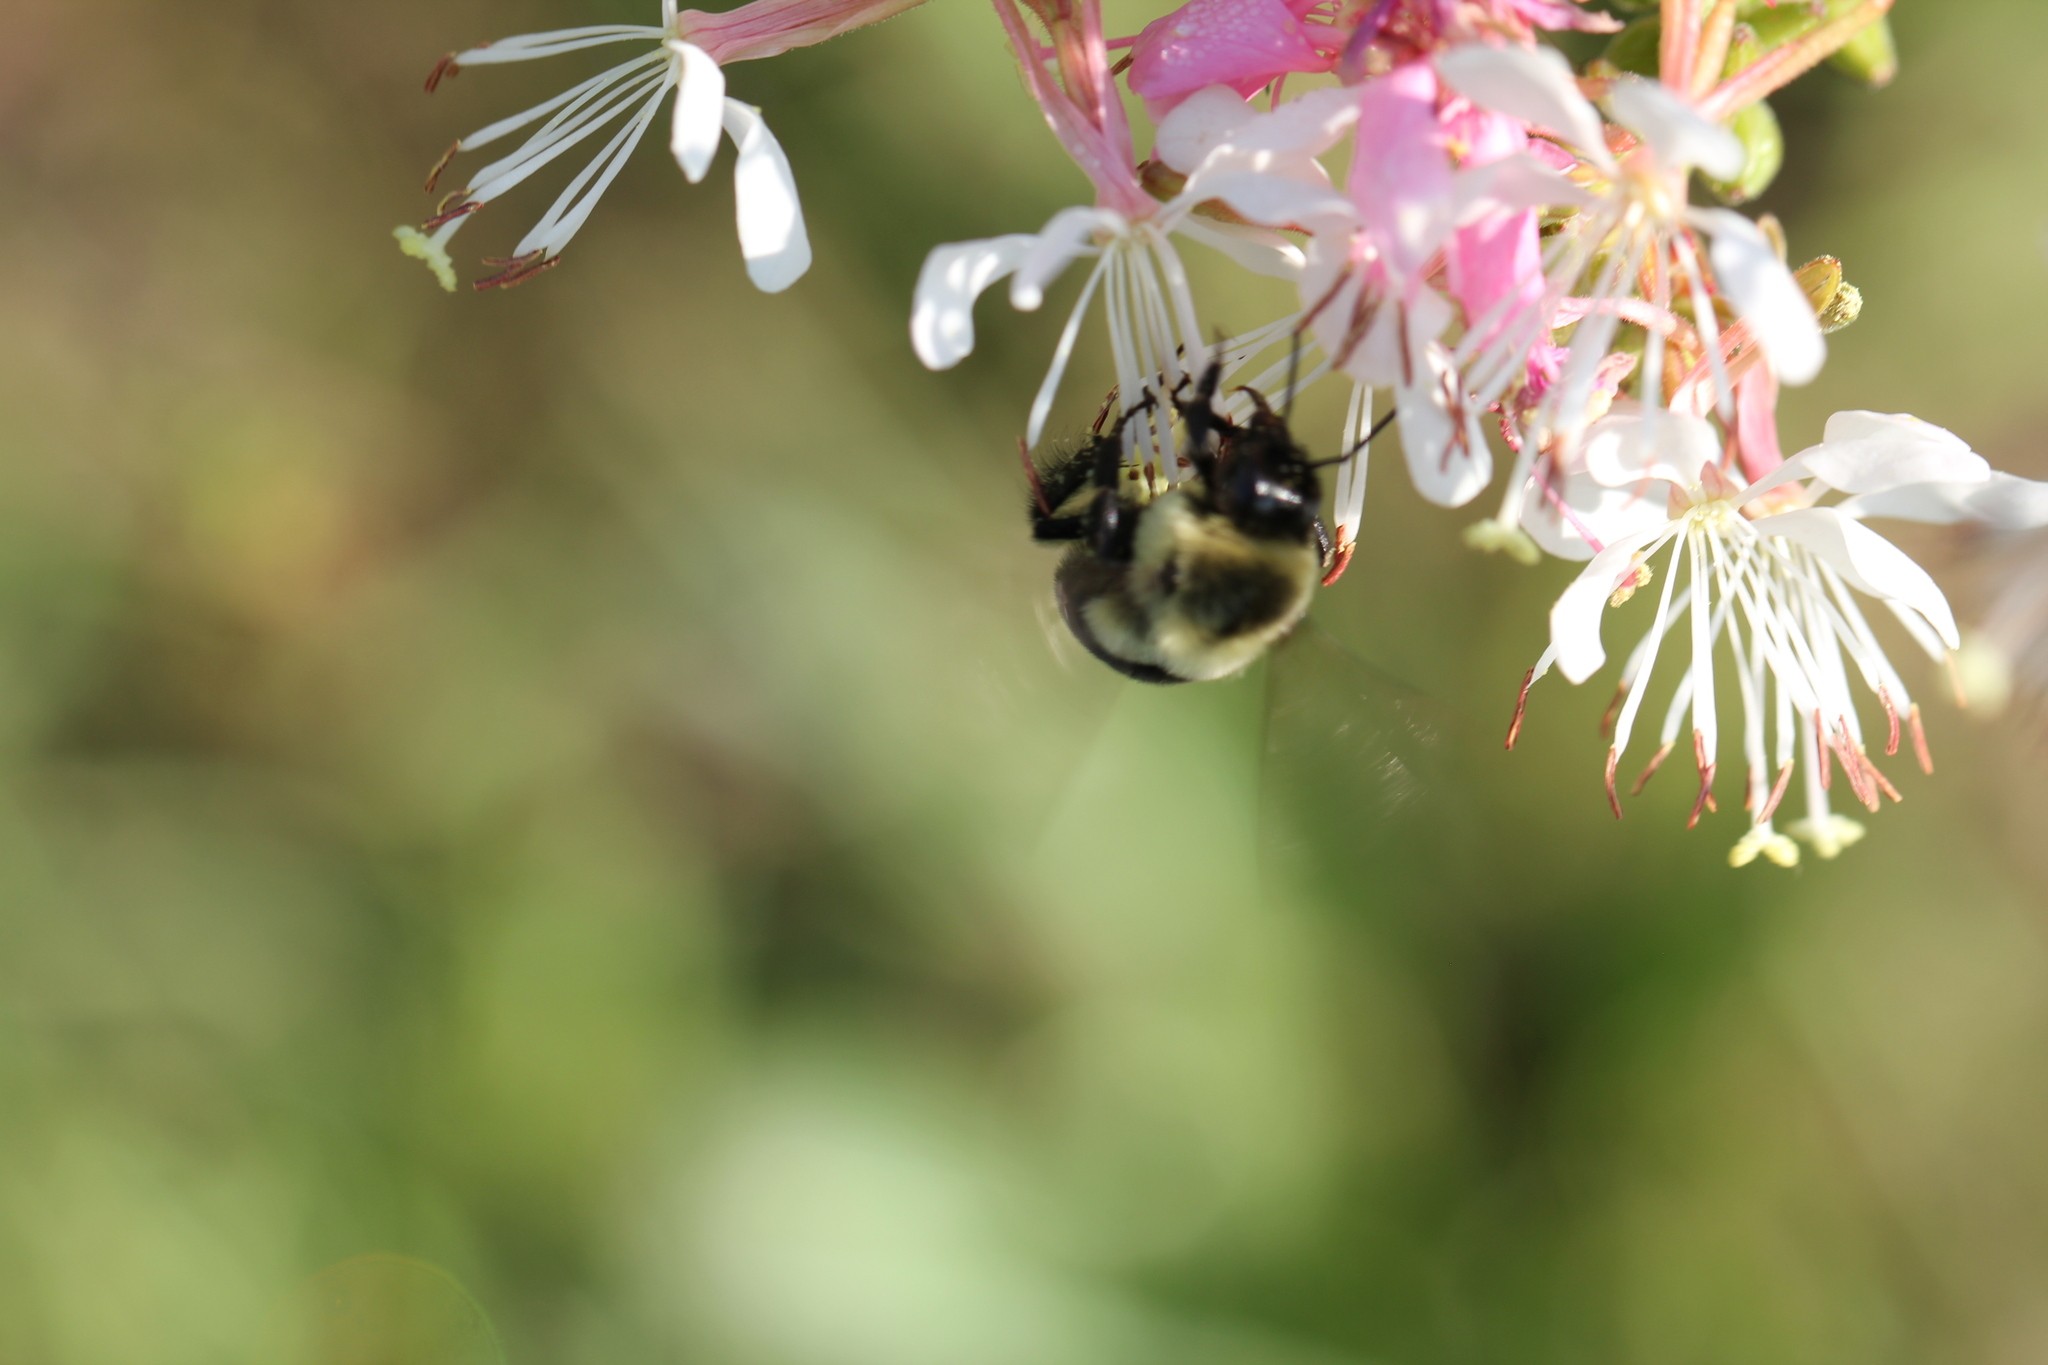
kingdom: Animalia
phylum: Arthropoda
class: Insecta
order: Hymenoptera
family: Apidae
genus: Bombus
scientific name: Bombus impatiens
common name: Common eastern bumble bee
